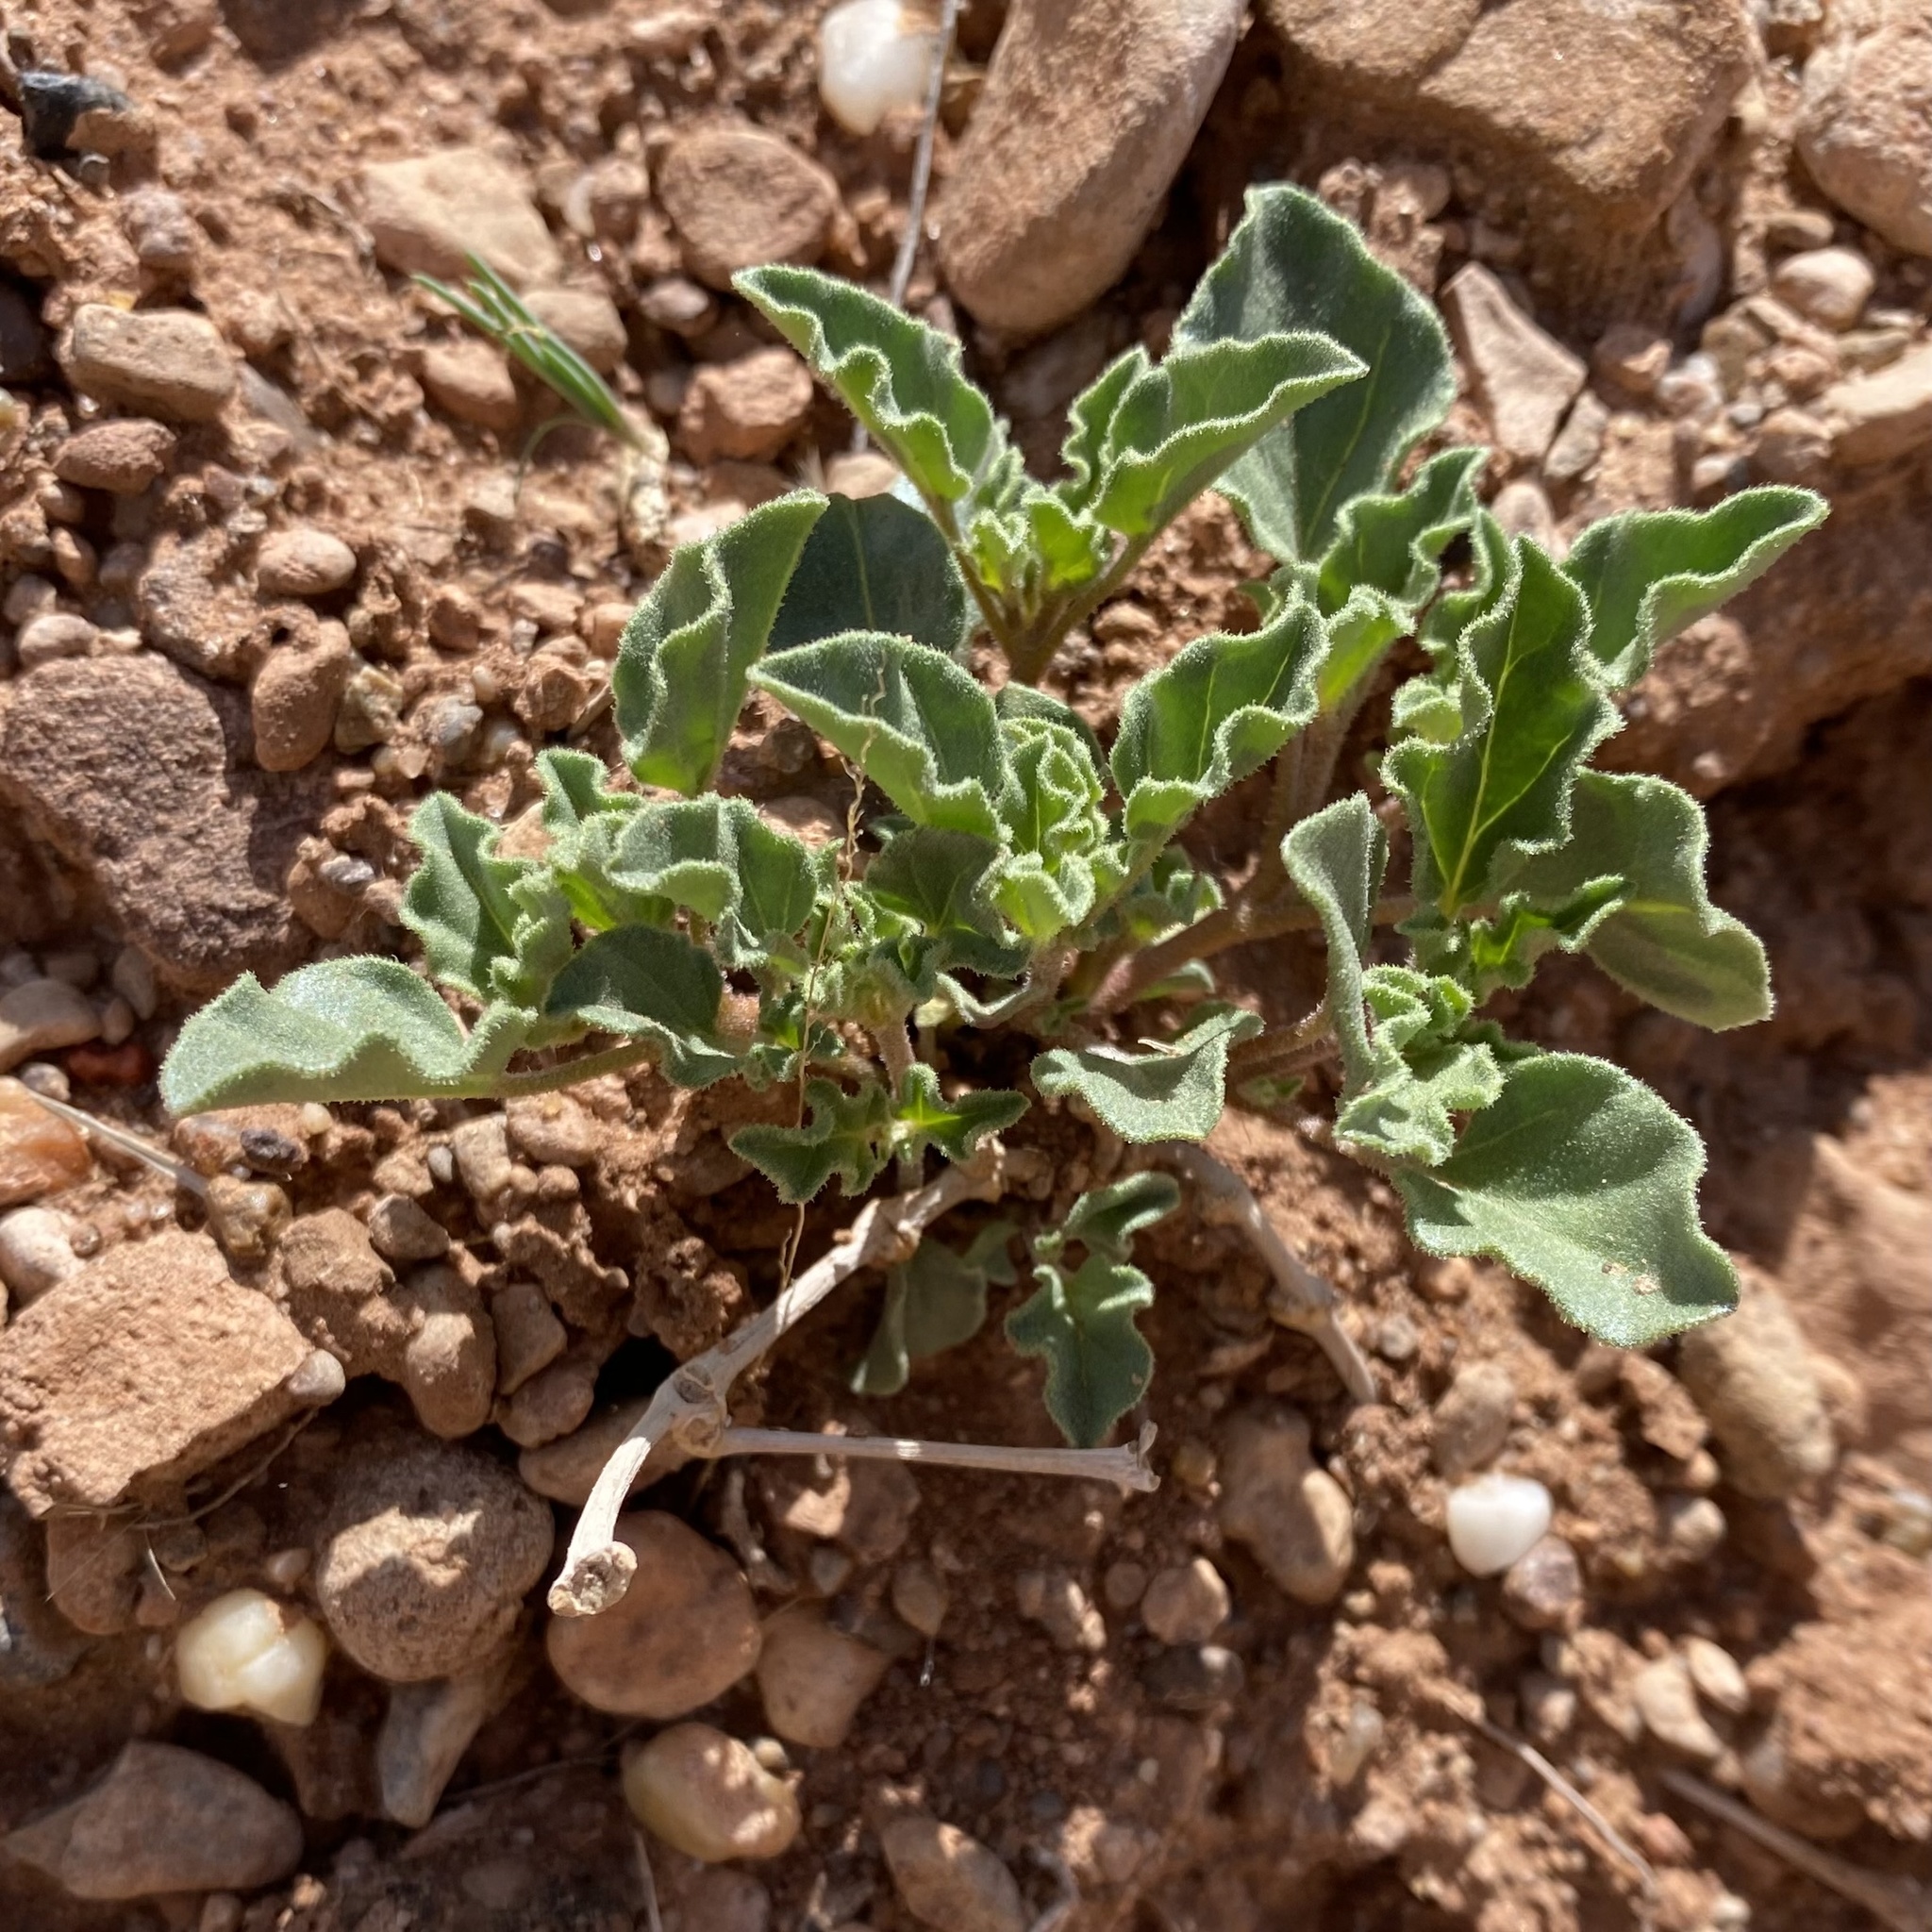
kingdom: Plantae
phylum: Tracheophyta
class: Magnoliopsida
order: Caryophyllales
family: Nyctaginaceae
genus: Acleisanthes
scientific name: Acleisanthes diffusa
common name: Spreading moonpod
